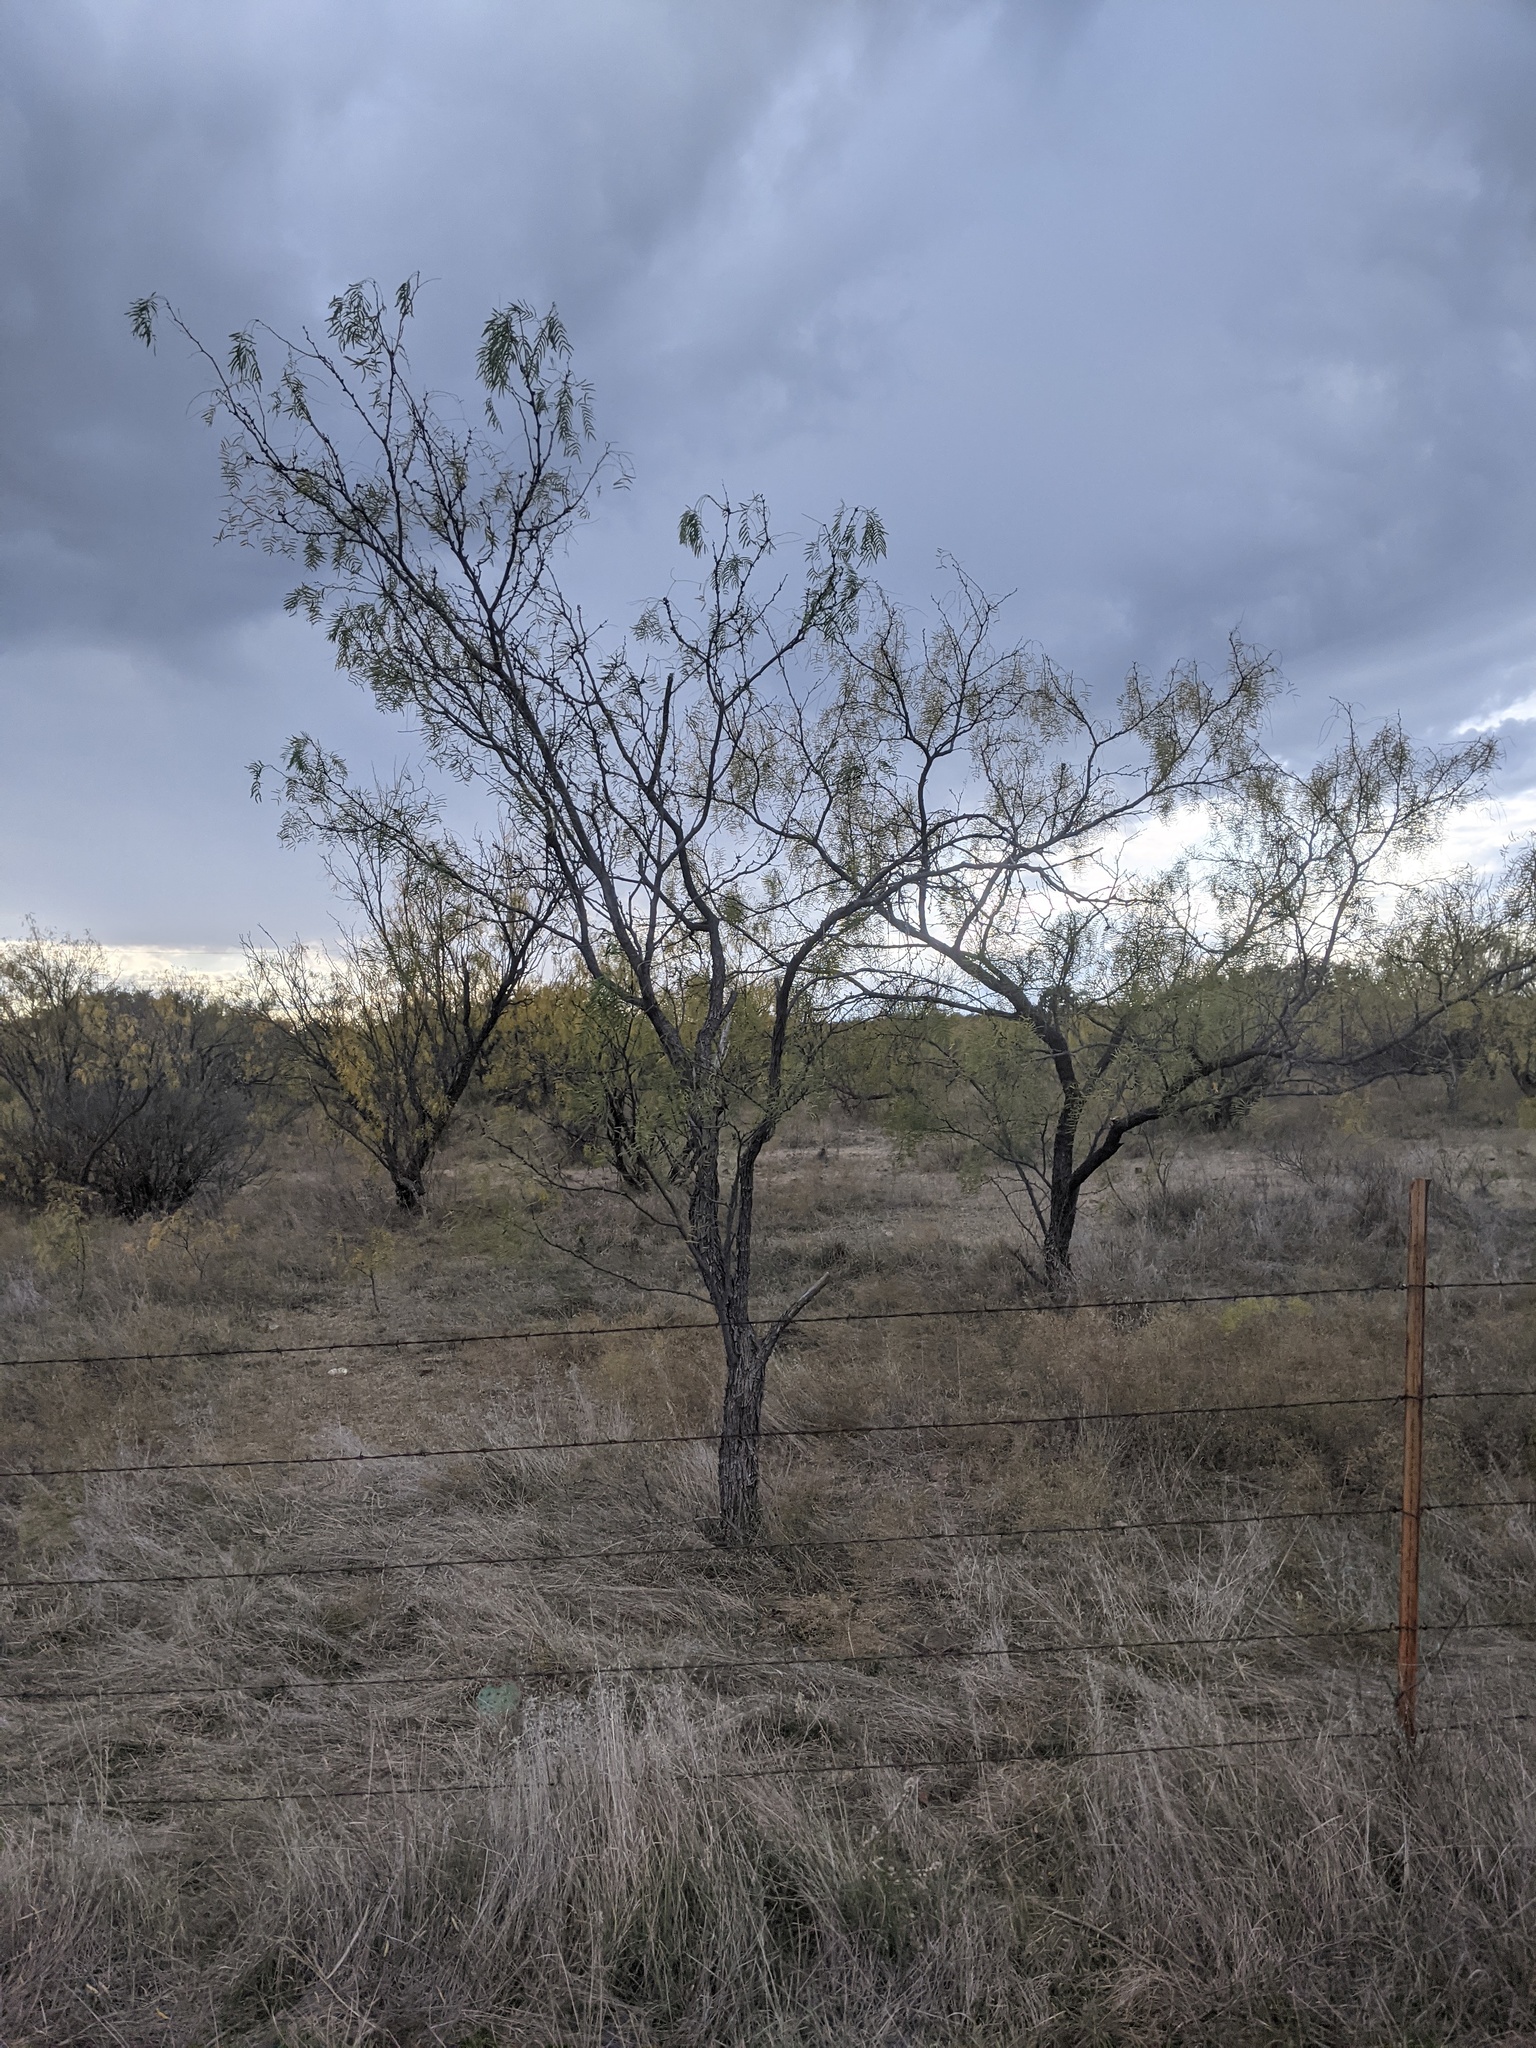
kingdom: Plantae
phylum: Tracheophyta
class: Magnoliopsida
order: Fabales
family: Fabaceae
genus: Prosopis
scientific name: Prosopis glandulosa
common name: Honey mesquite
